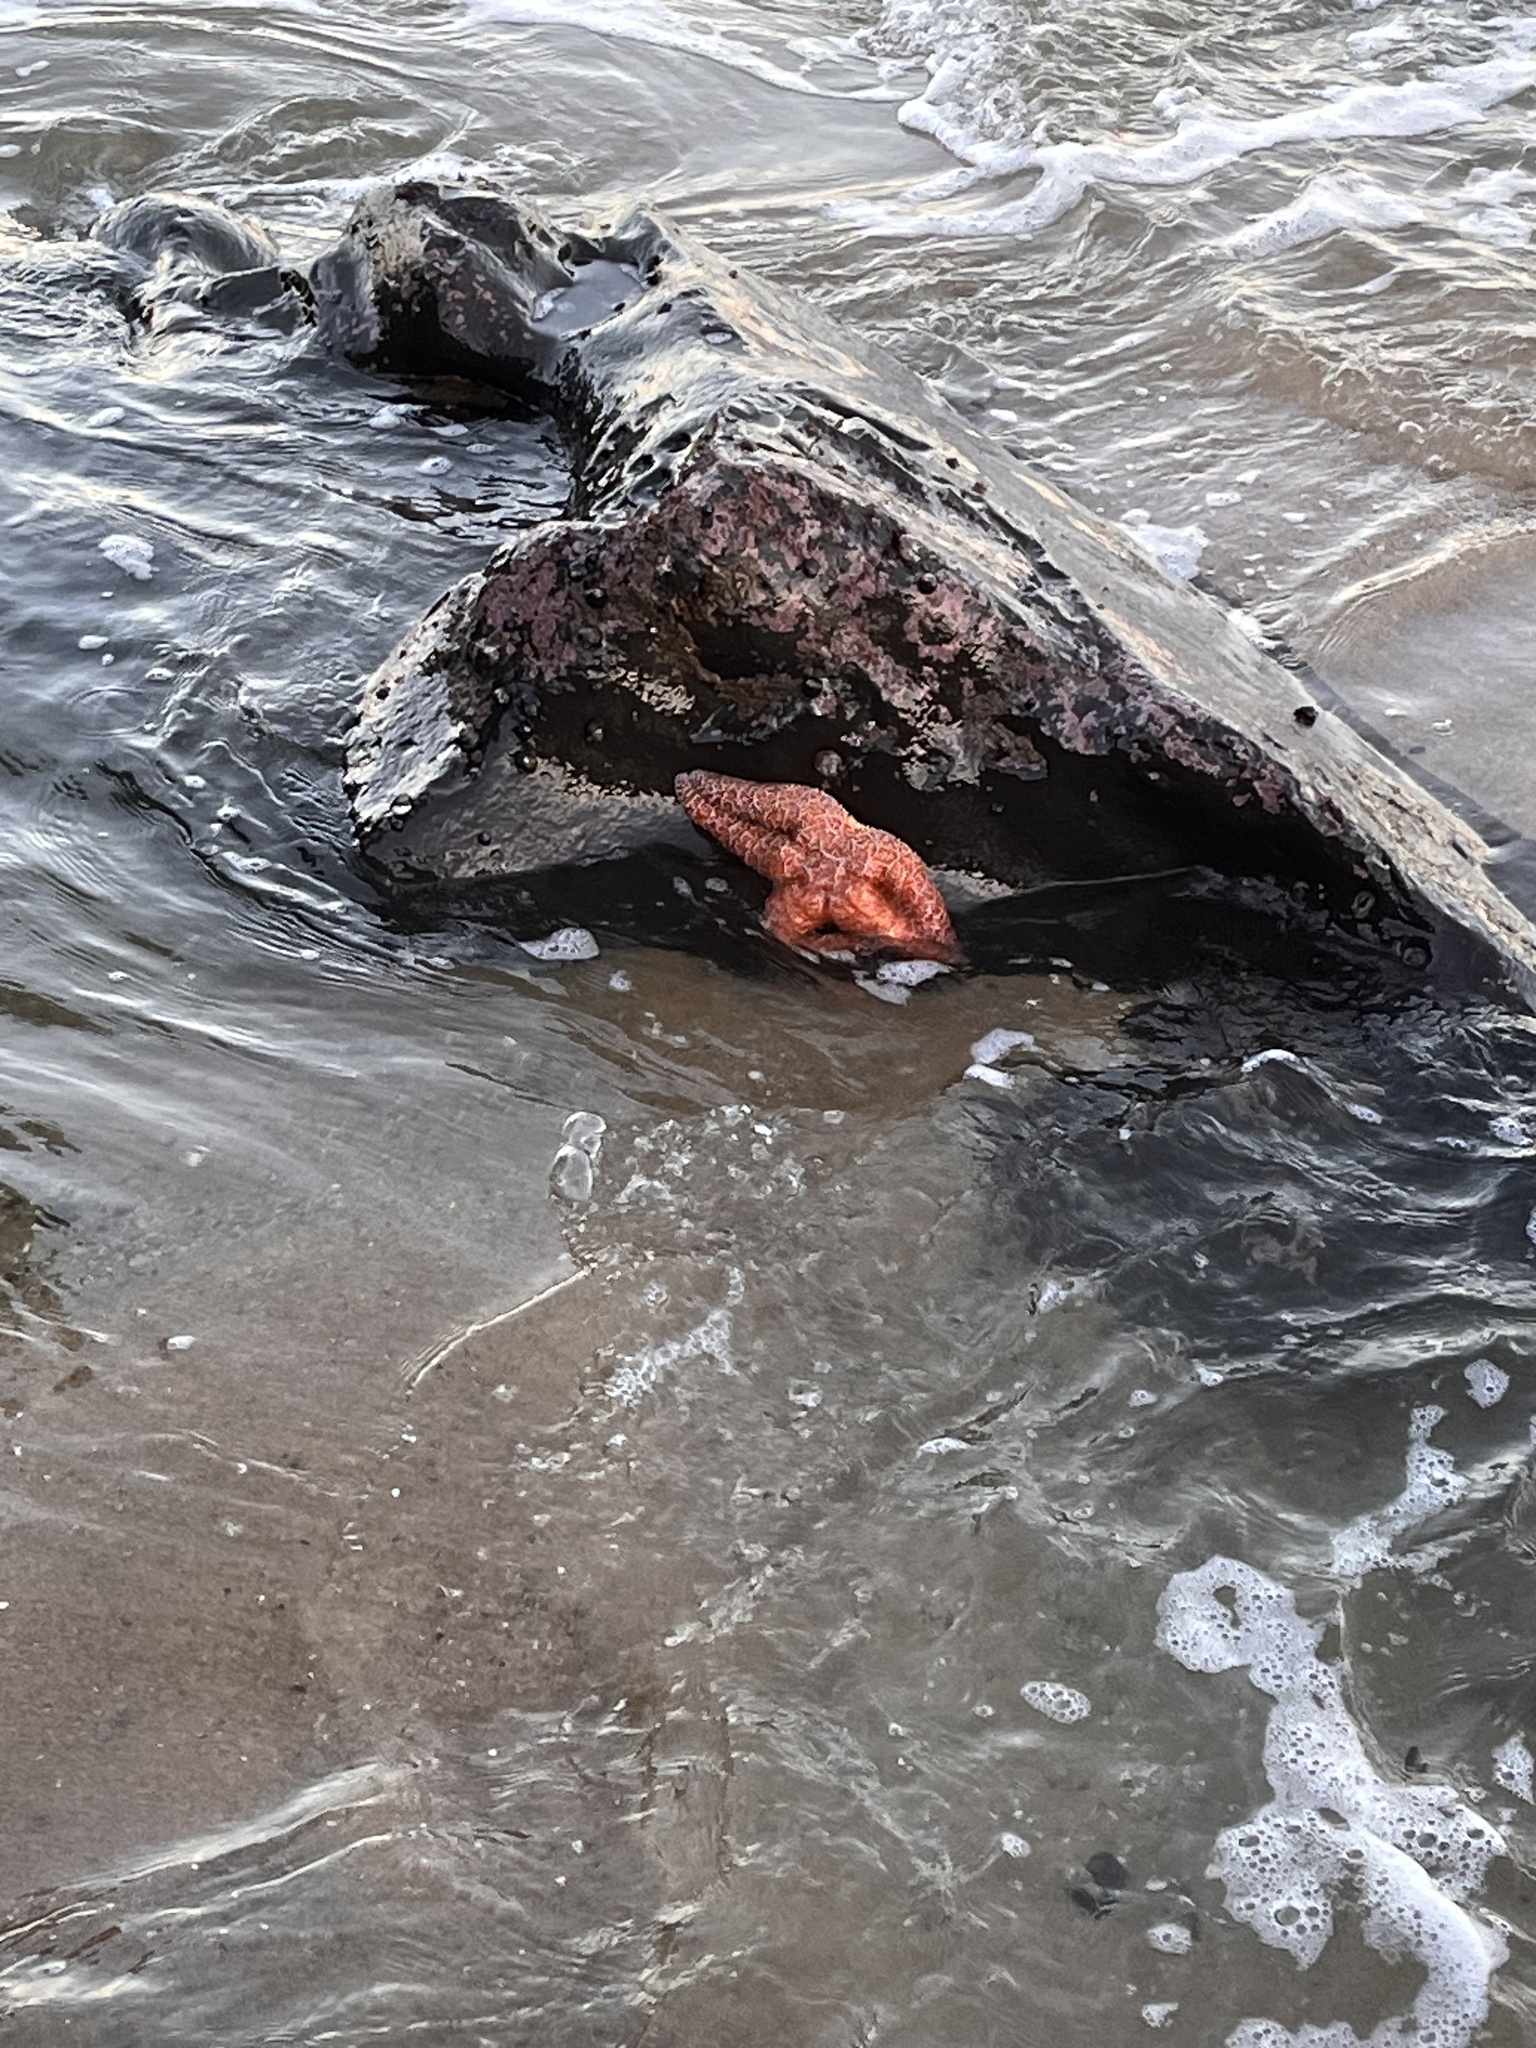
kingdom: Animalia
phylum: Echinodermata
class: Asteroidea
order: Forcipulatida
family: Asteriidae
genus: Pisaster
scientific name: Pisaster ochraceus
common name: Ochre stars
